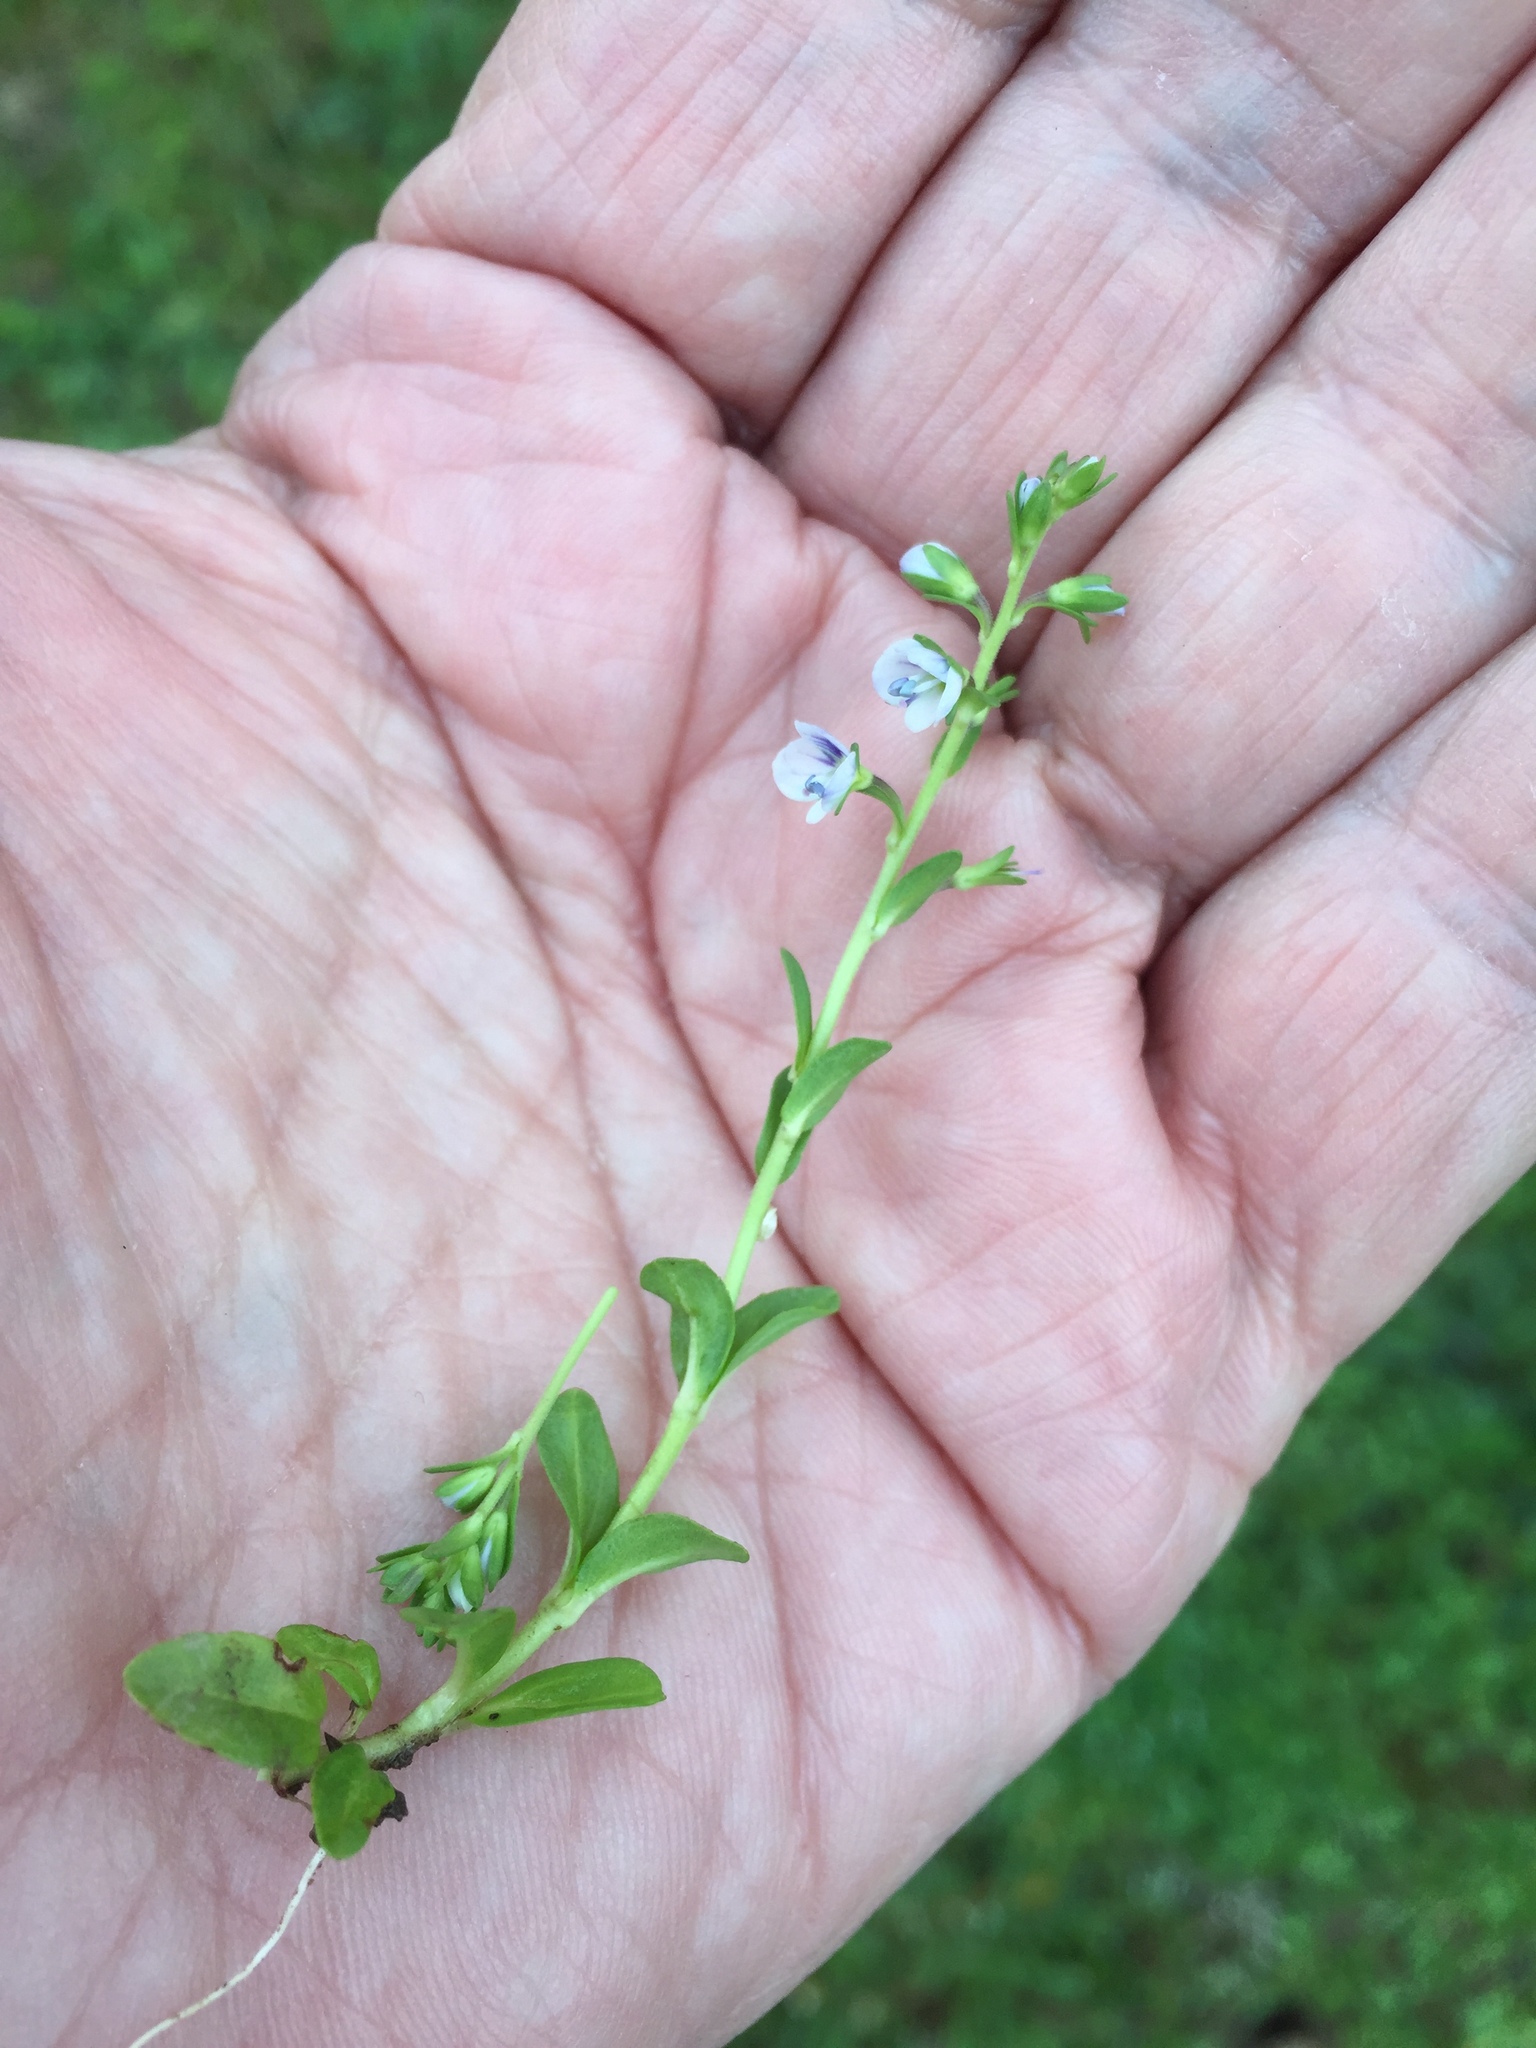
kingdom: Plantae
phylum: Tracheophyta
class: Magnoliopsida
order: Lamiales
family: Plantaginaceae
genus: Veronica
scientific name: Veronica serpyllifolia
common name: Thyme-leaved speedwell
